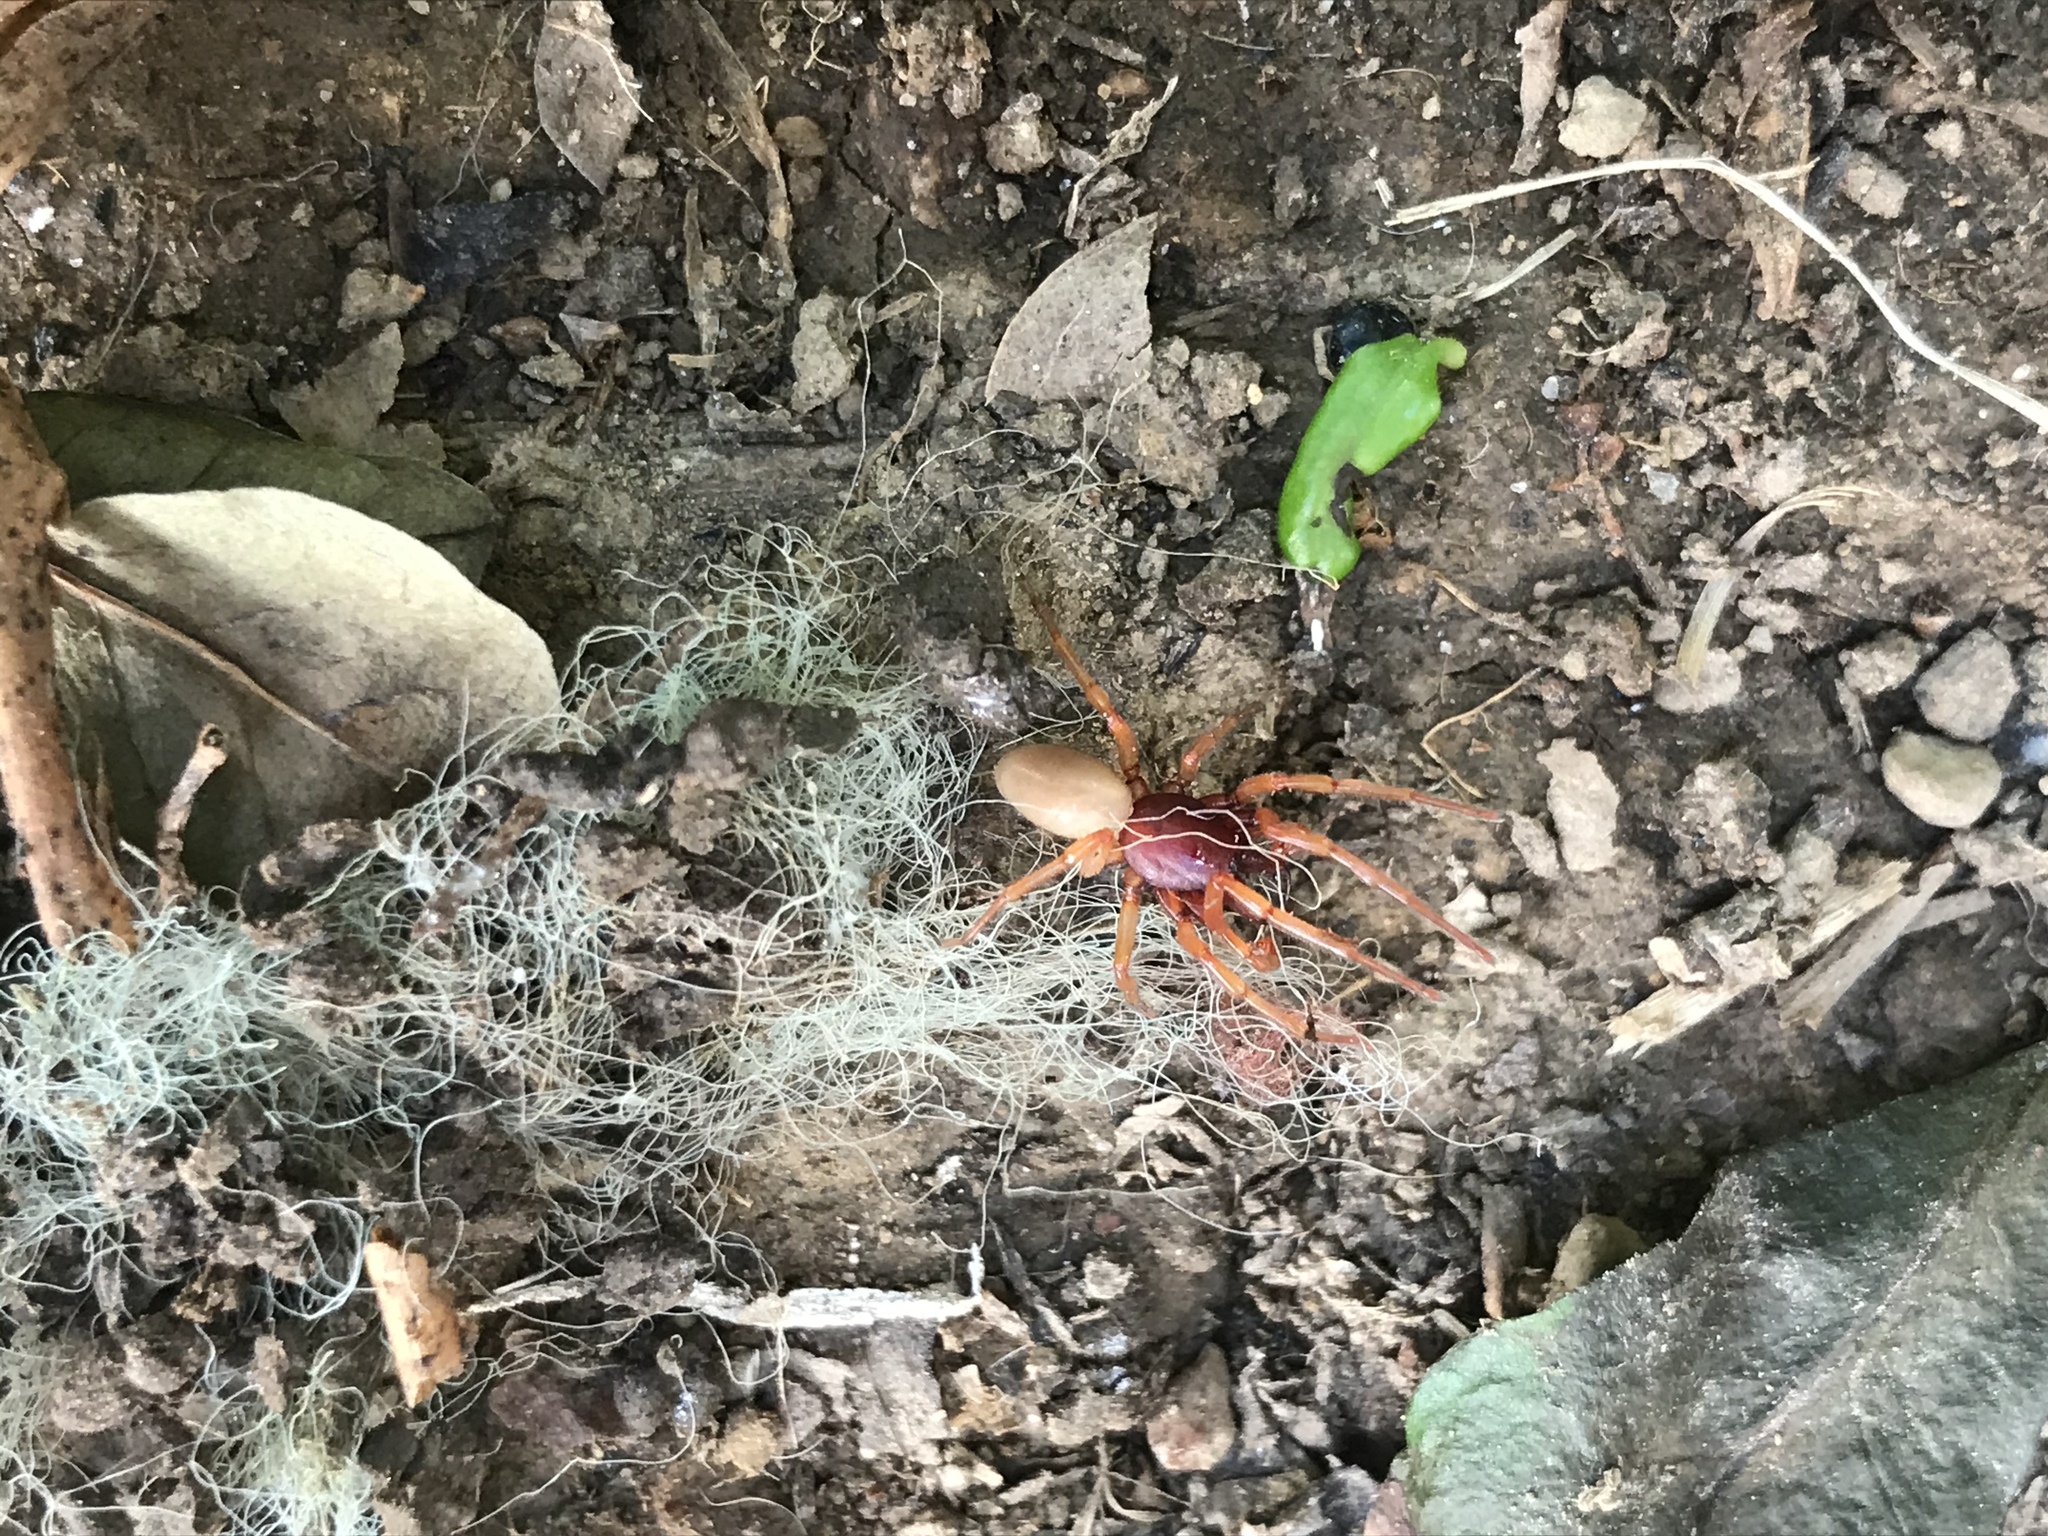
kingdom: Animalia
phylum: Arthropoda
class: Arachnida
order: Araneae
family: Dysderidae
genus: Dysdera
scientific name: Dysdera crocata
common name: Woodlouse spider
